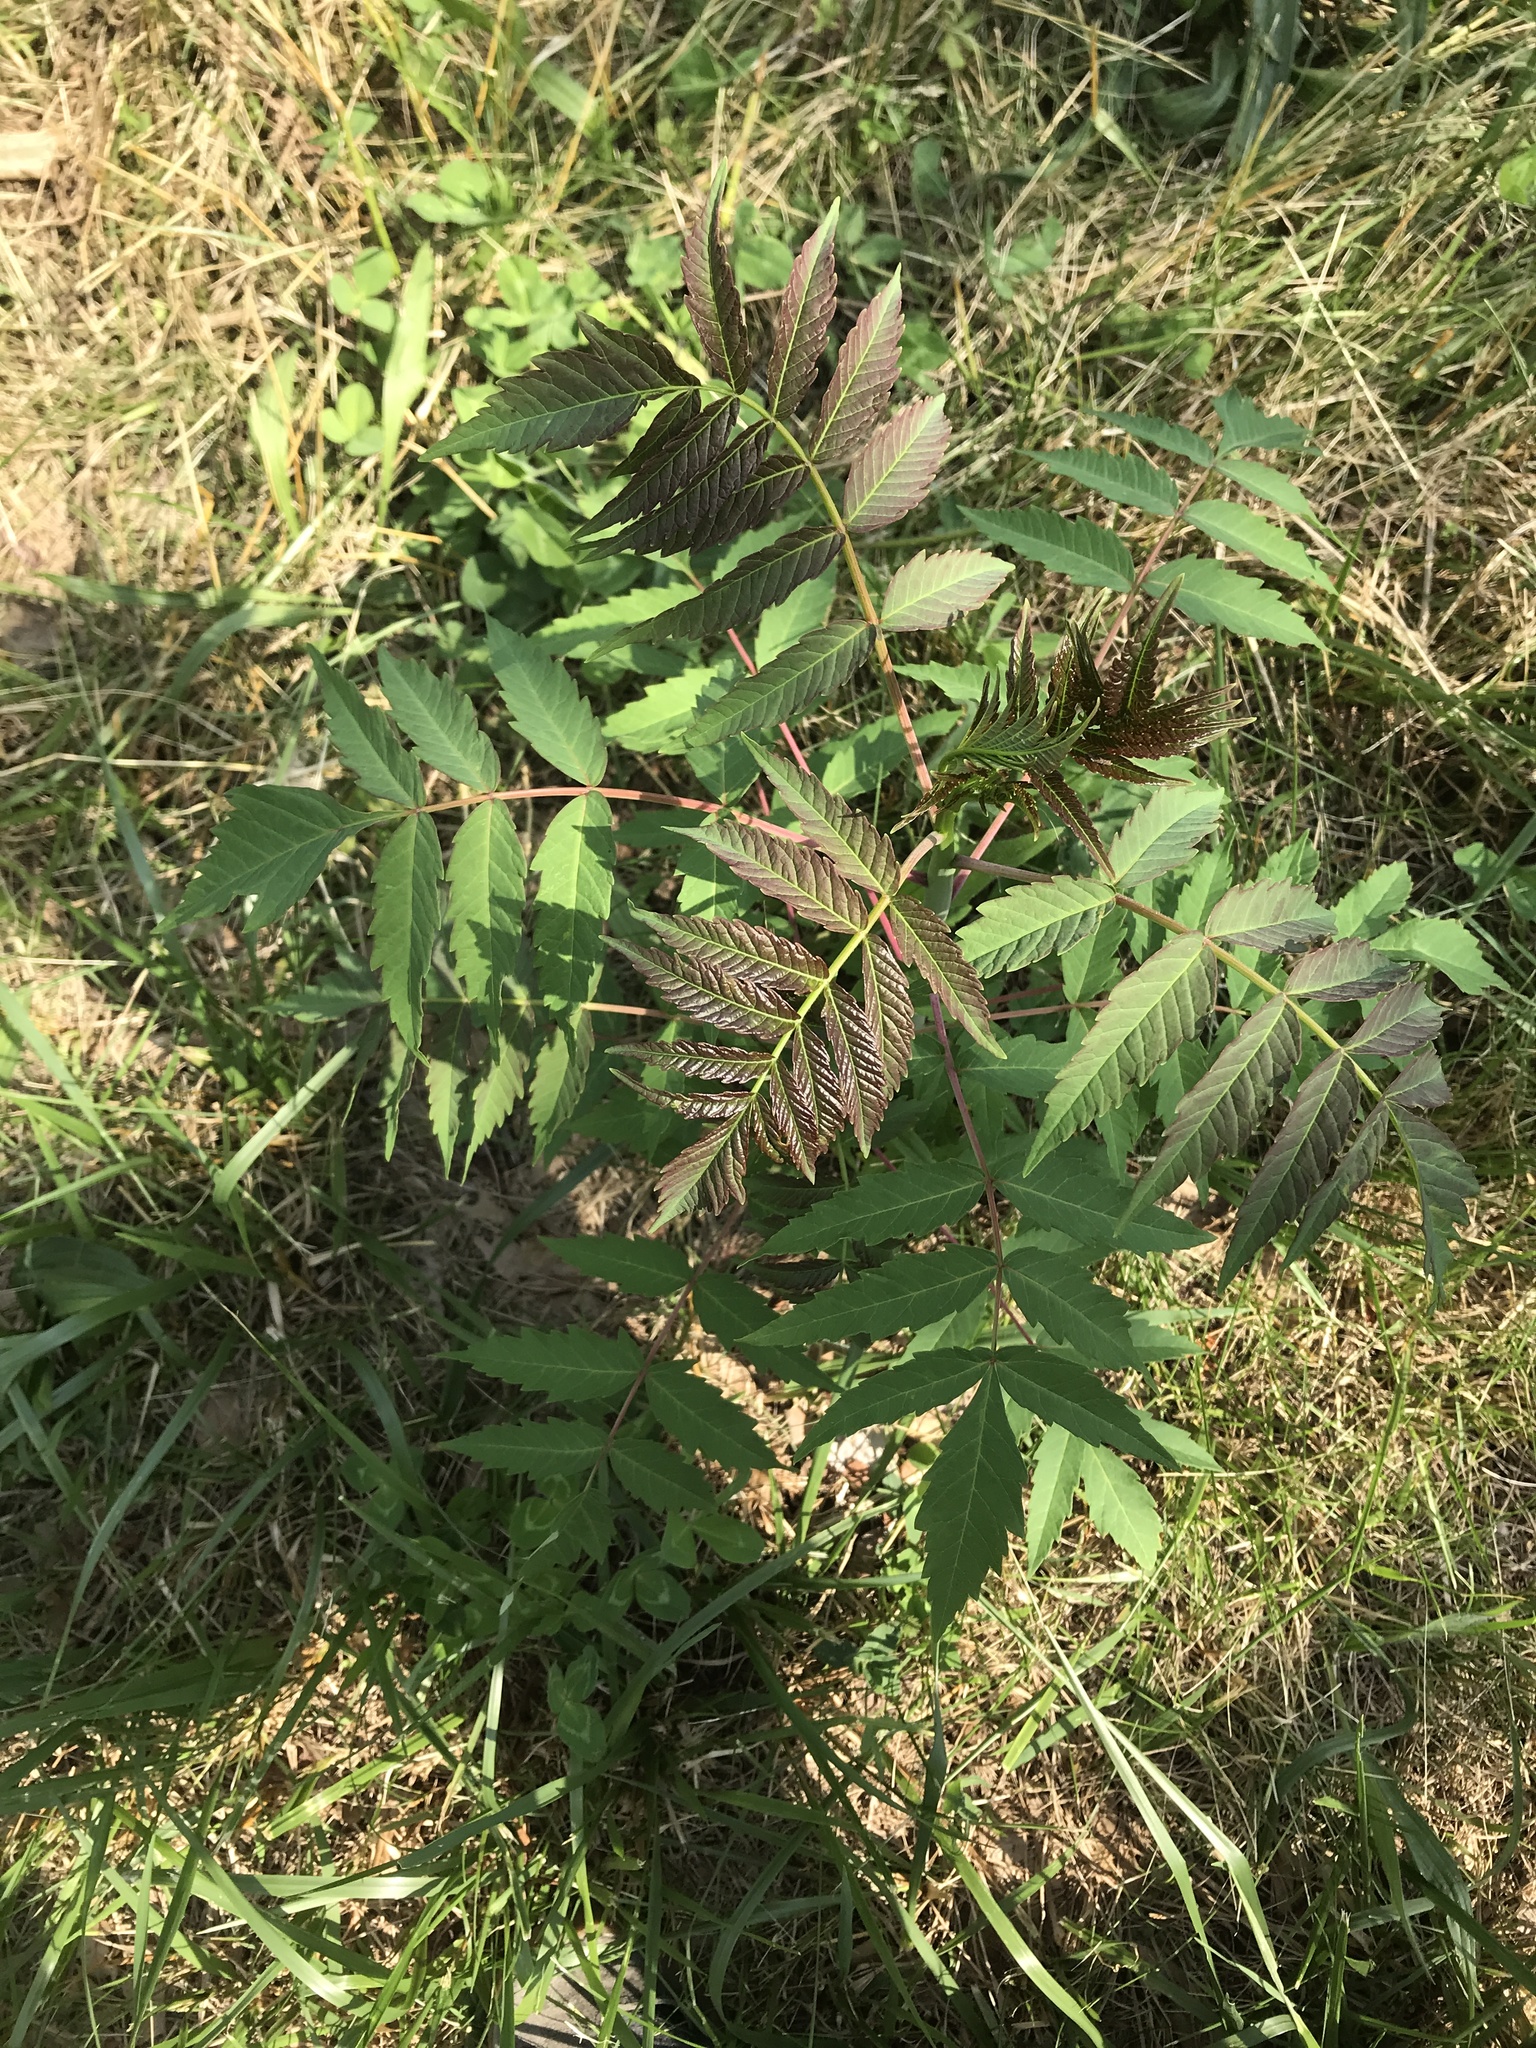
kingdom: Plantae
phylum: Tracheophyta
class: Magnoliopsida
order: Sapindales
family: Anacardiaceae
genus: Rhus
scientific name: Rhus glabra
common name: Scarlet sumac
